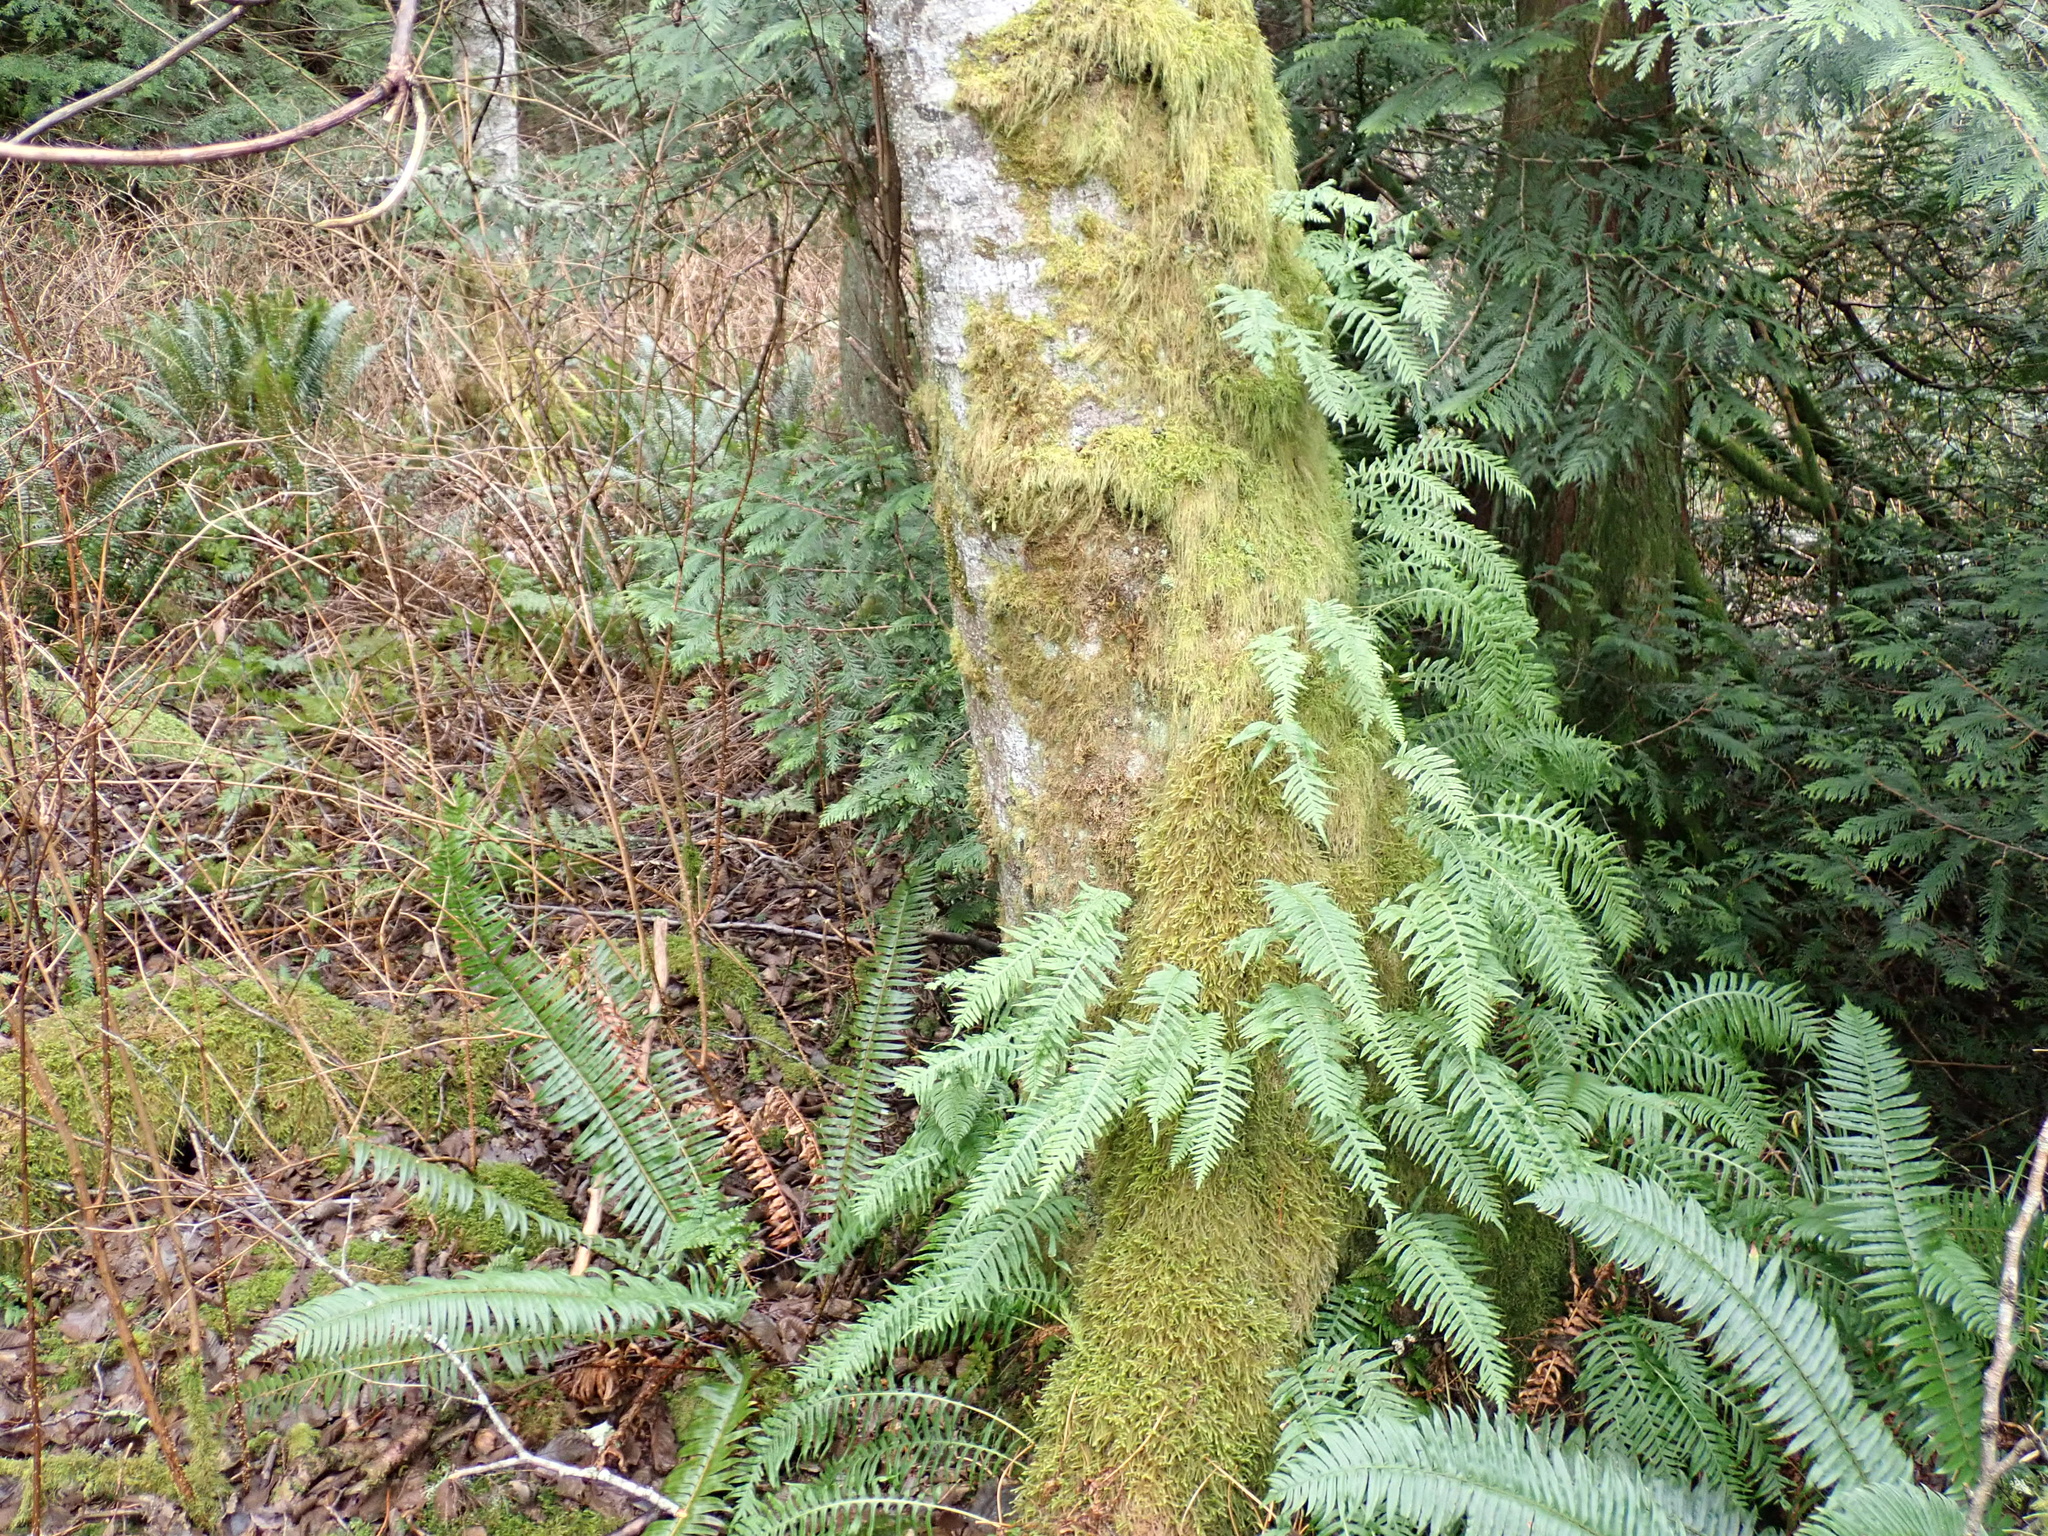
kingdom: Plantae
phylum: Tracheophyta
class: Polypodiopsida
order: Polypodiales
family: Polypodiaceae
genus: Polypodium
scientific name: Polypodium glycyrrhiza
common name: Licorice fern
